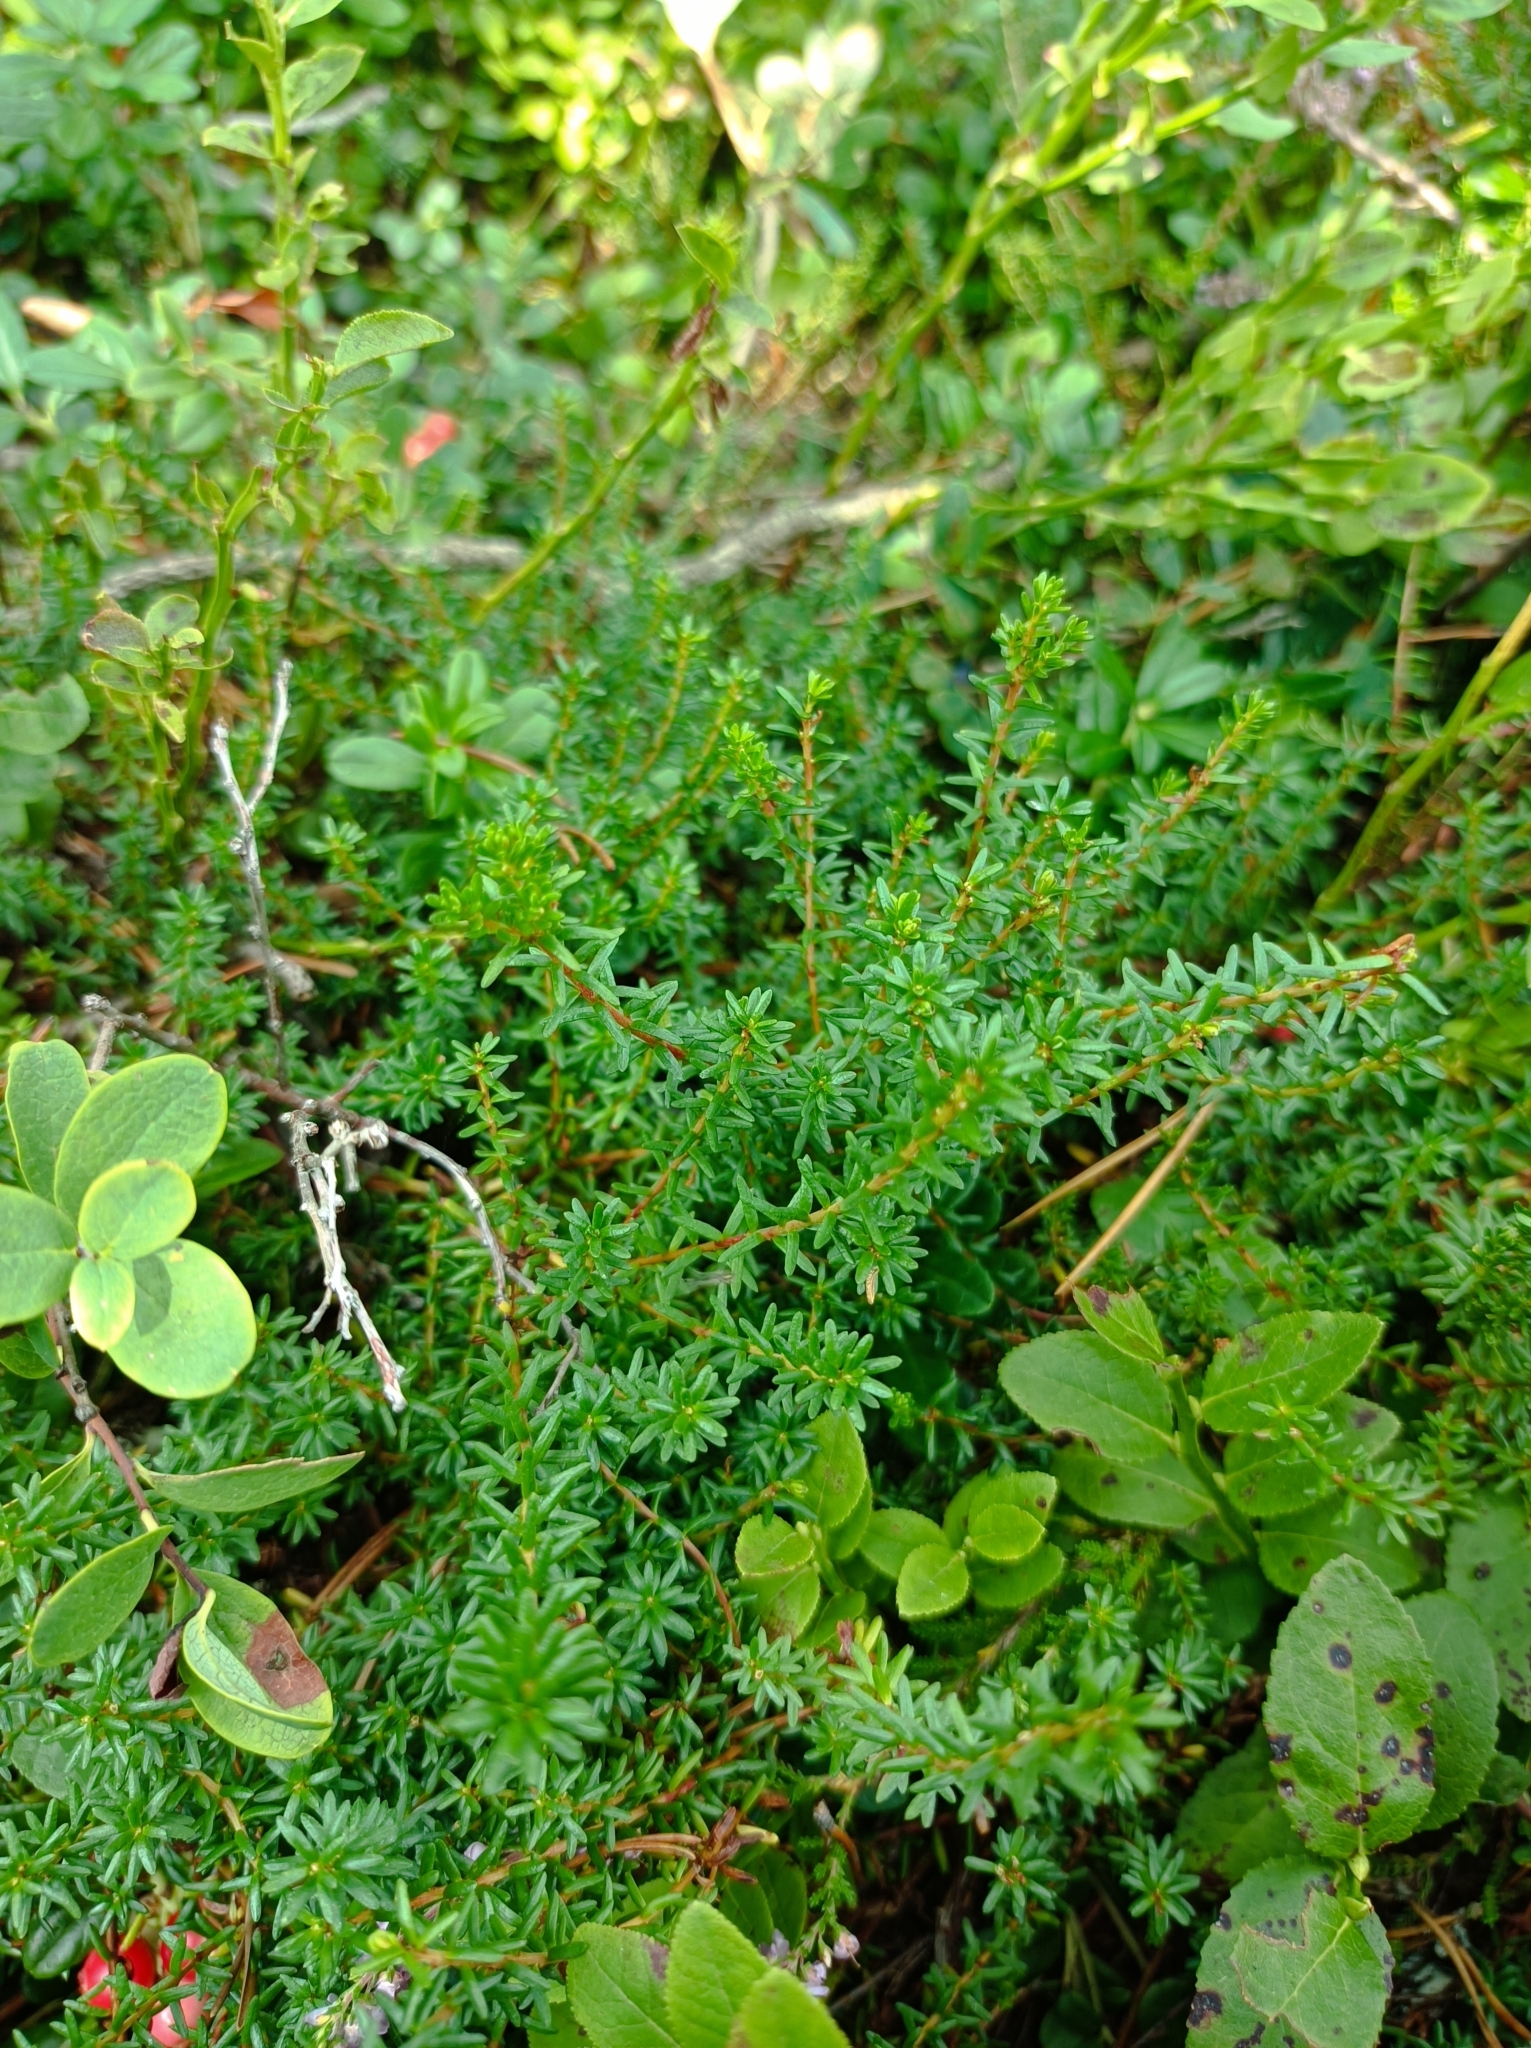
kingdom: Plantae
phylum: Tracheophyta
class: Magnoliopsida
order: Ericales
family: Ericaceae
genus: Empetrum
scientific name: Empetrum nigrum
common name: Black crowberry
